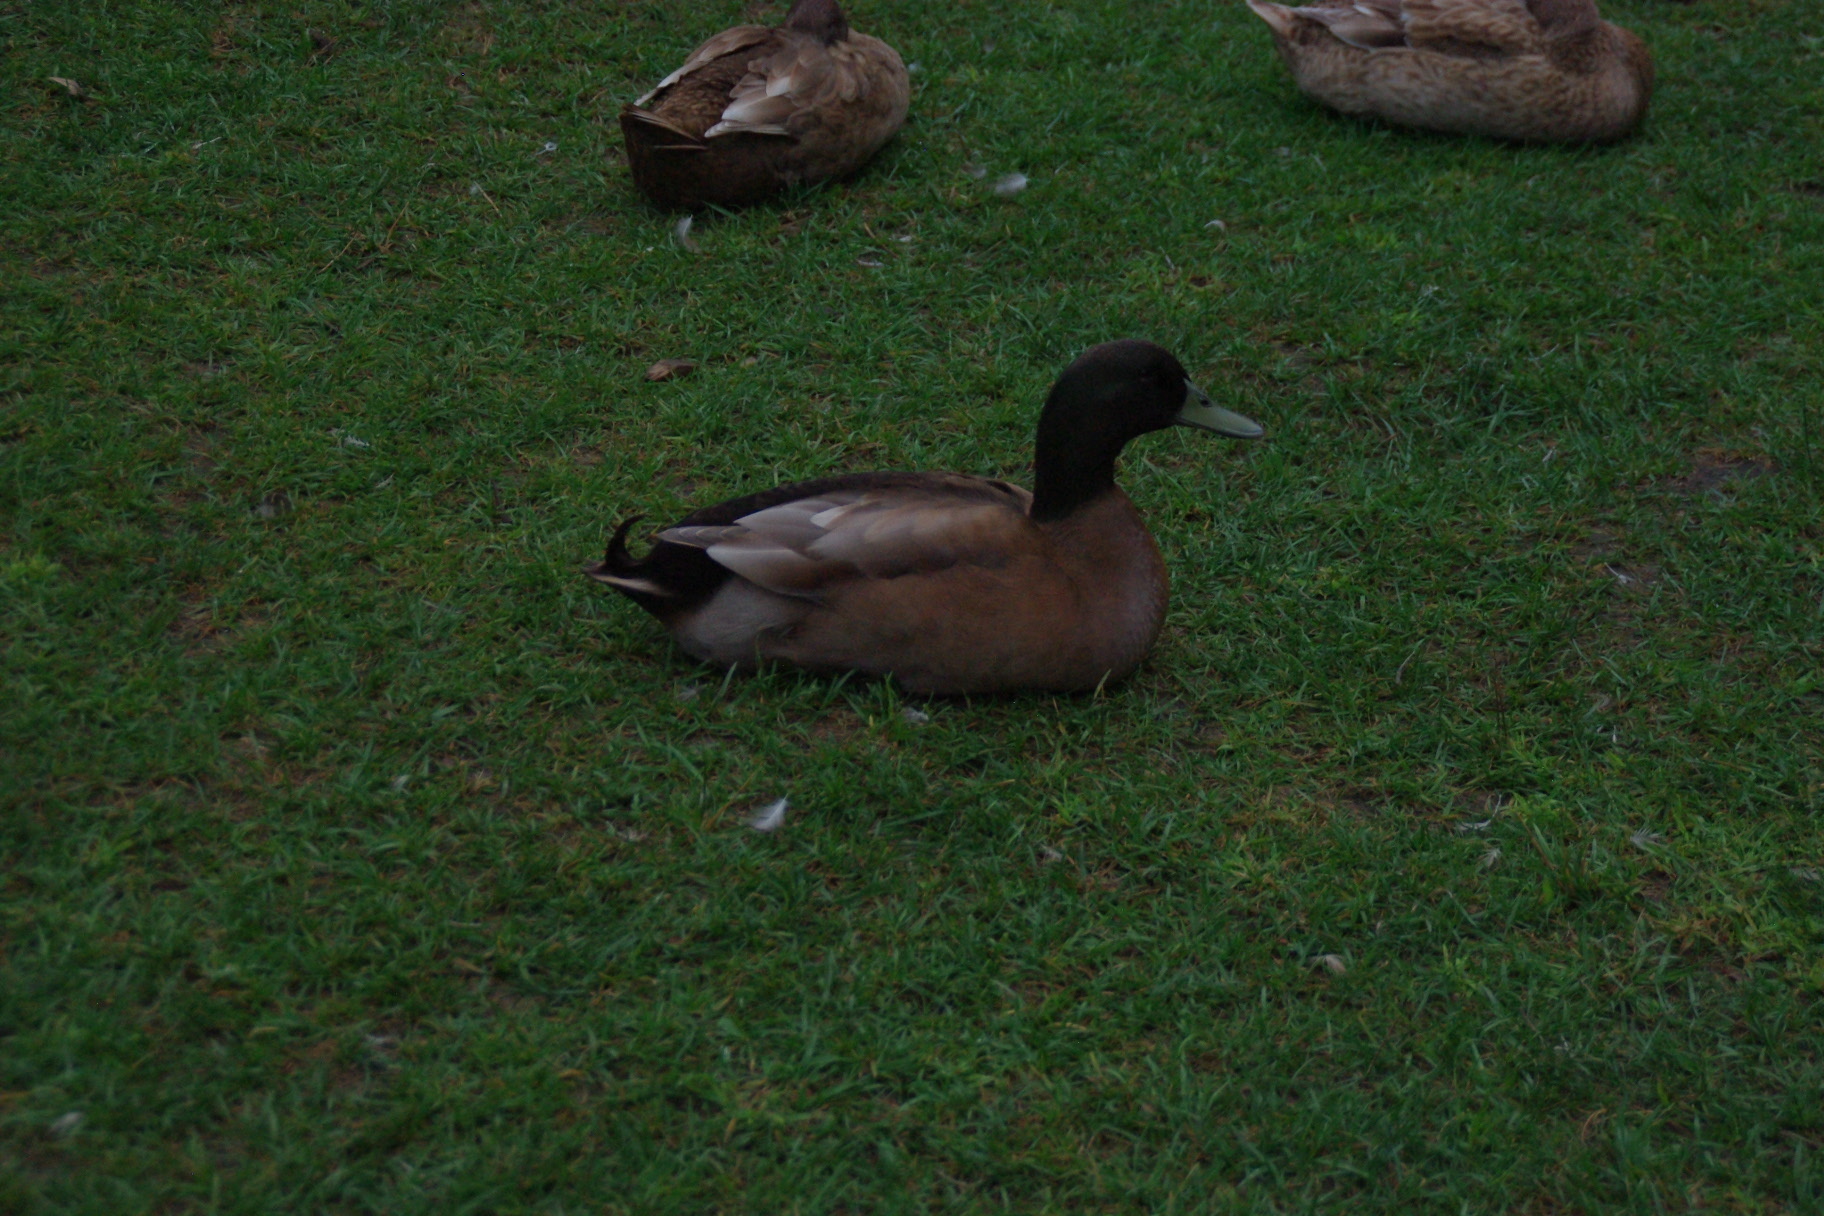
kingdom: Animalia
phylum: Chordata
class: Aves
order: Anseriformes
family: Anatidae
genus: Anas
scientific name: Anas platyrhynchos
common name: Mallard
